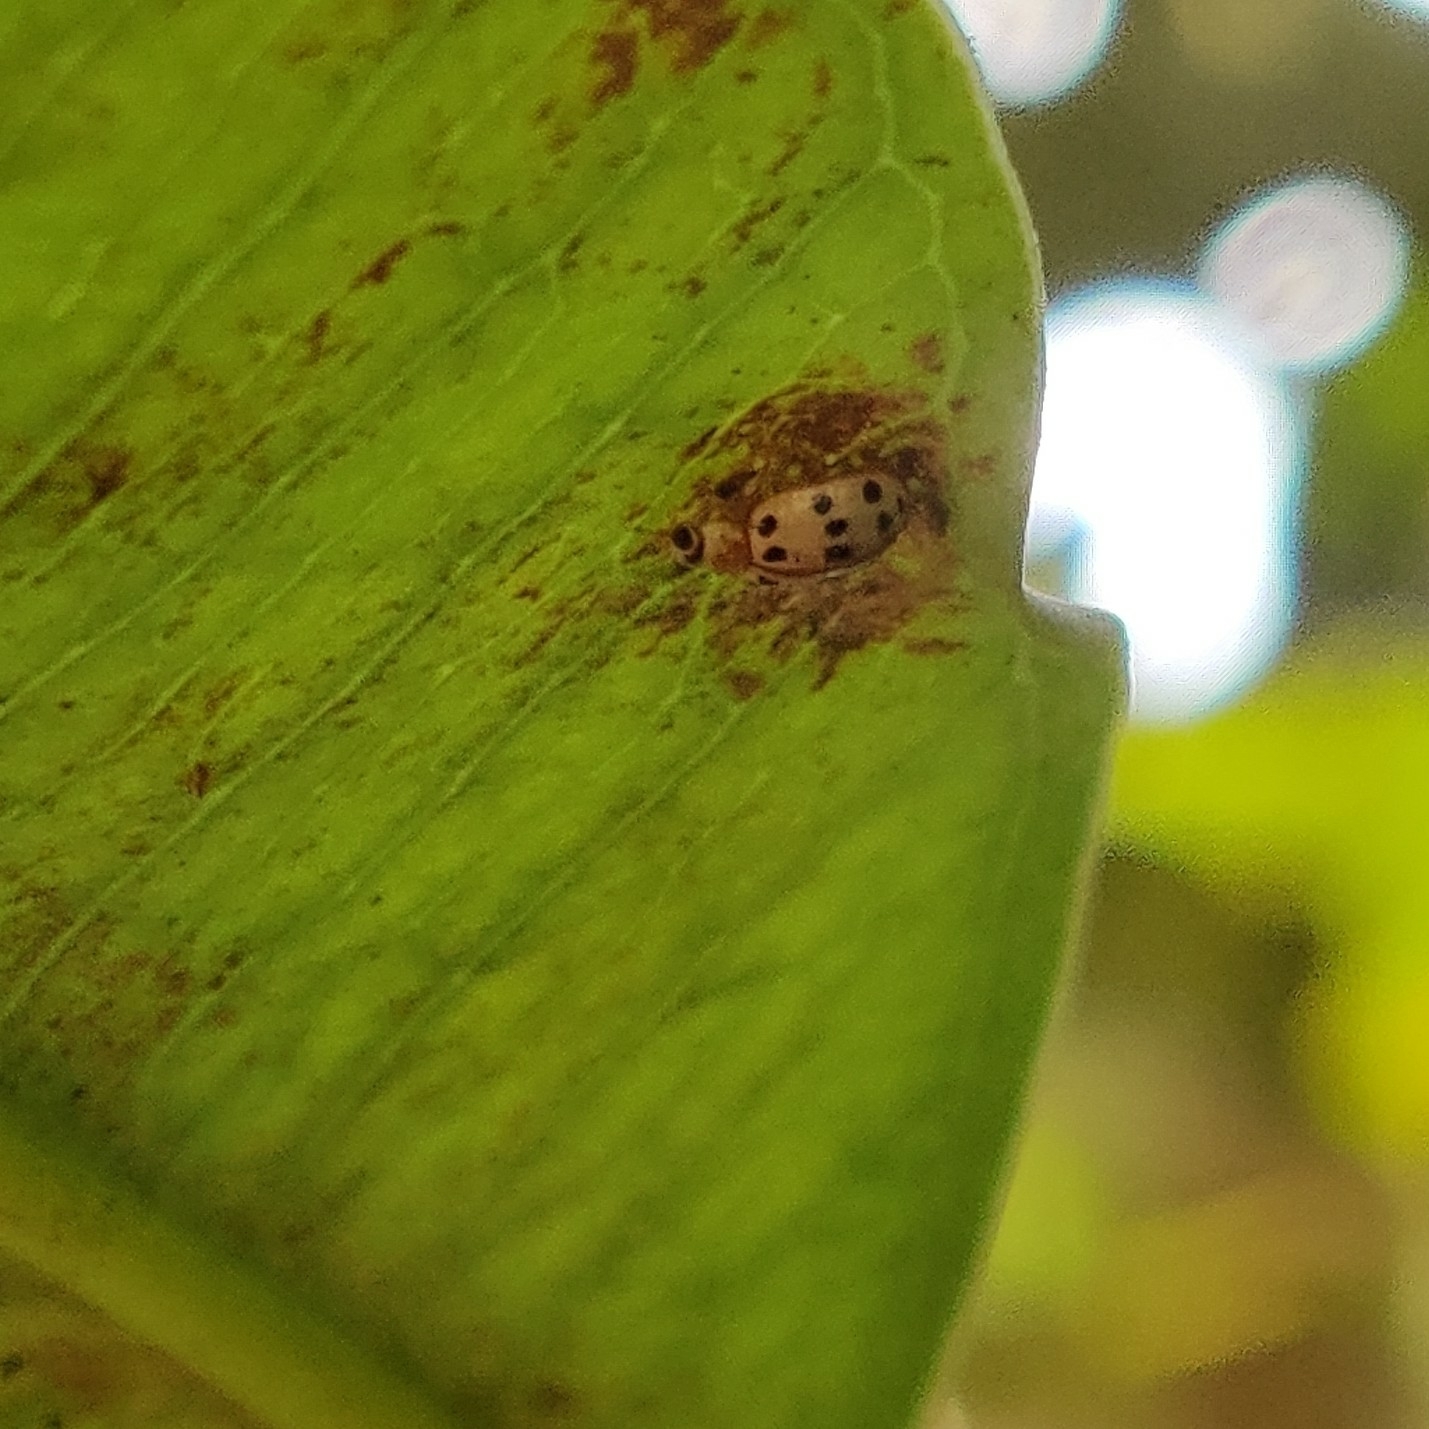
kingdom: Animalia
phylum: Arthropoda
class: Insecta
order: Coleoptera
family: Coccinellidae
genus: Psyllobora
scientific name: Psyllobora bisoctonotata
